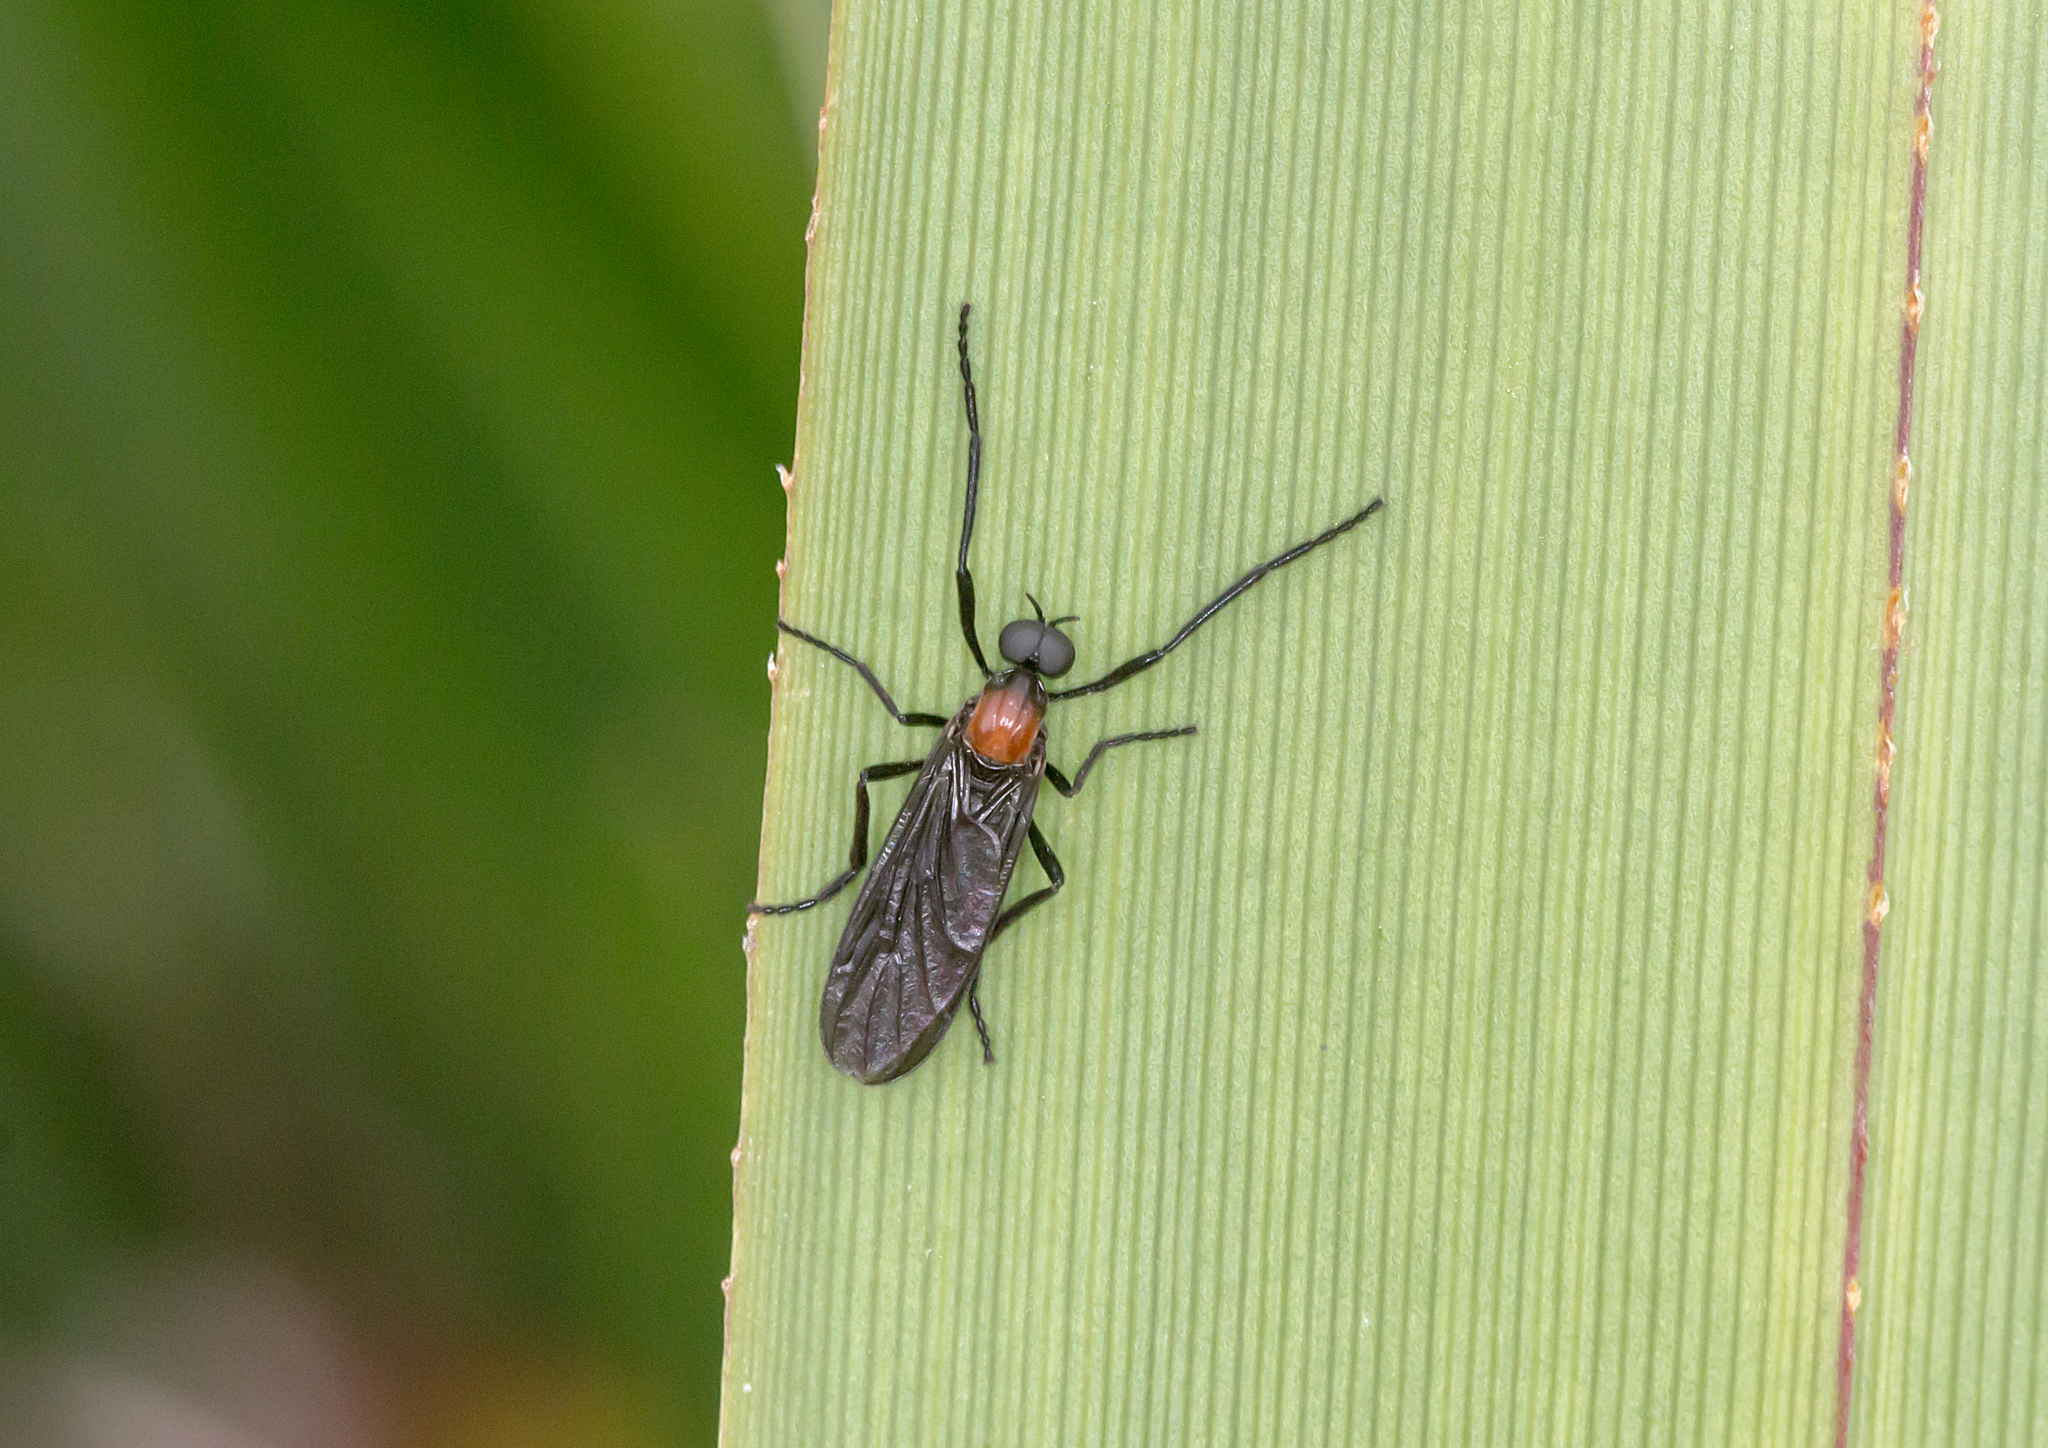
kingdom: Animalia
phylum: Arthropoda
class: Insecta
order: Diptera
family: Bibionidae
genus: Plecia
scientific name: Plecia dimidiata
